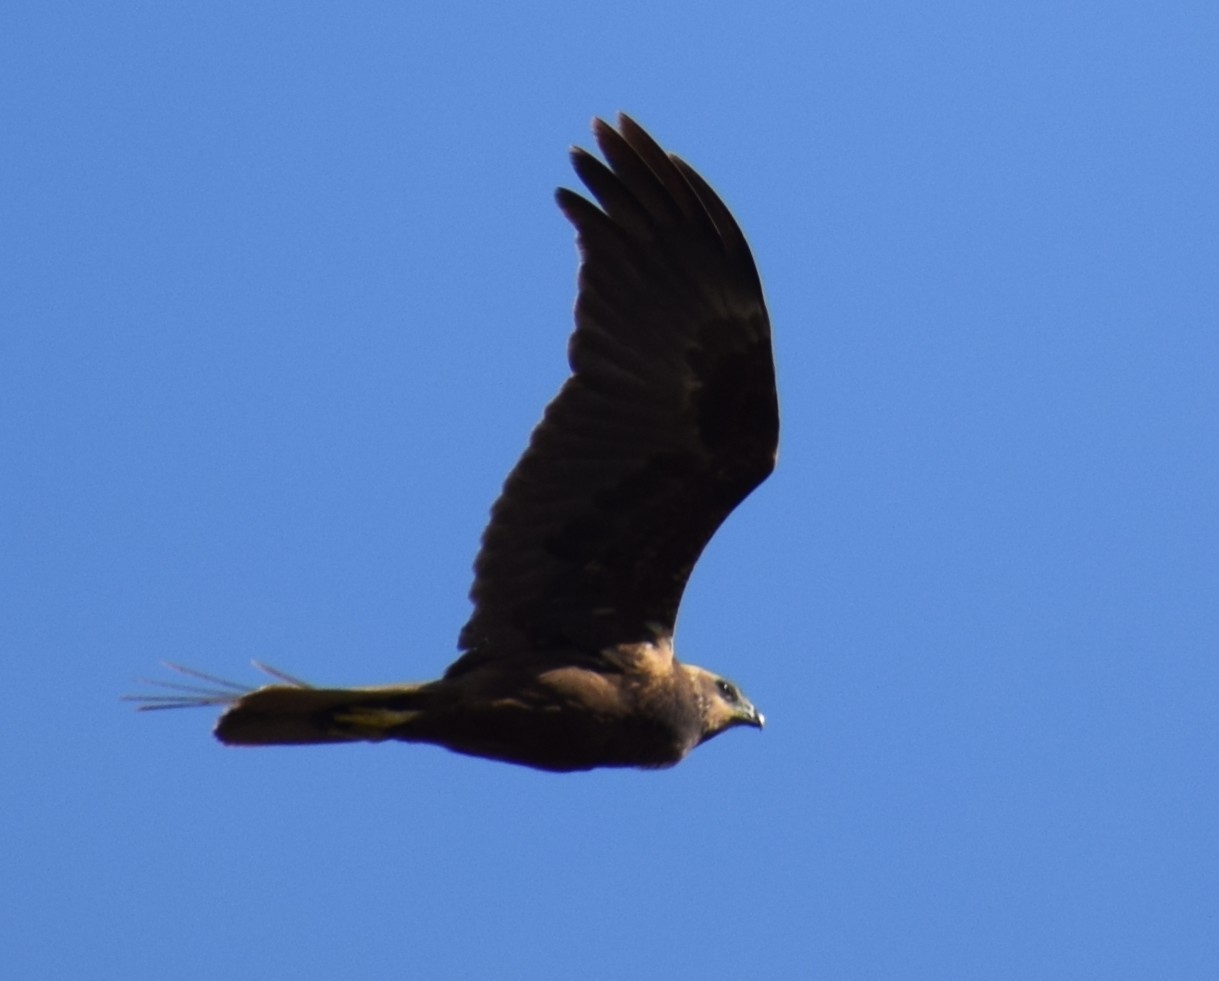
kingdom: Animalia
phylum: Chordata
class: Aves
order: Accipitriformes
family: Accipitridae
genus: Circus
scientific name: Circus aeruginosus
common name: Western marsh harrier
